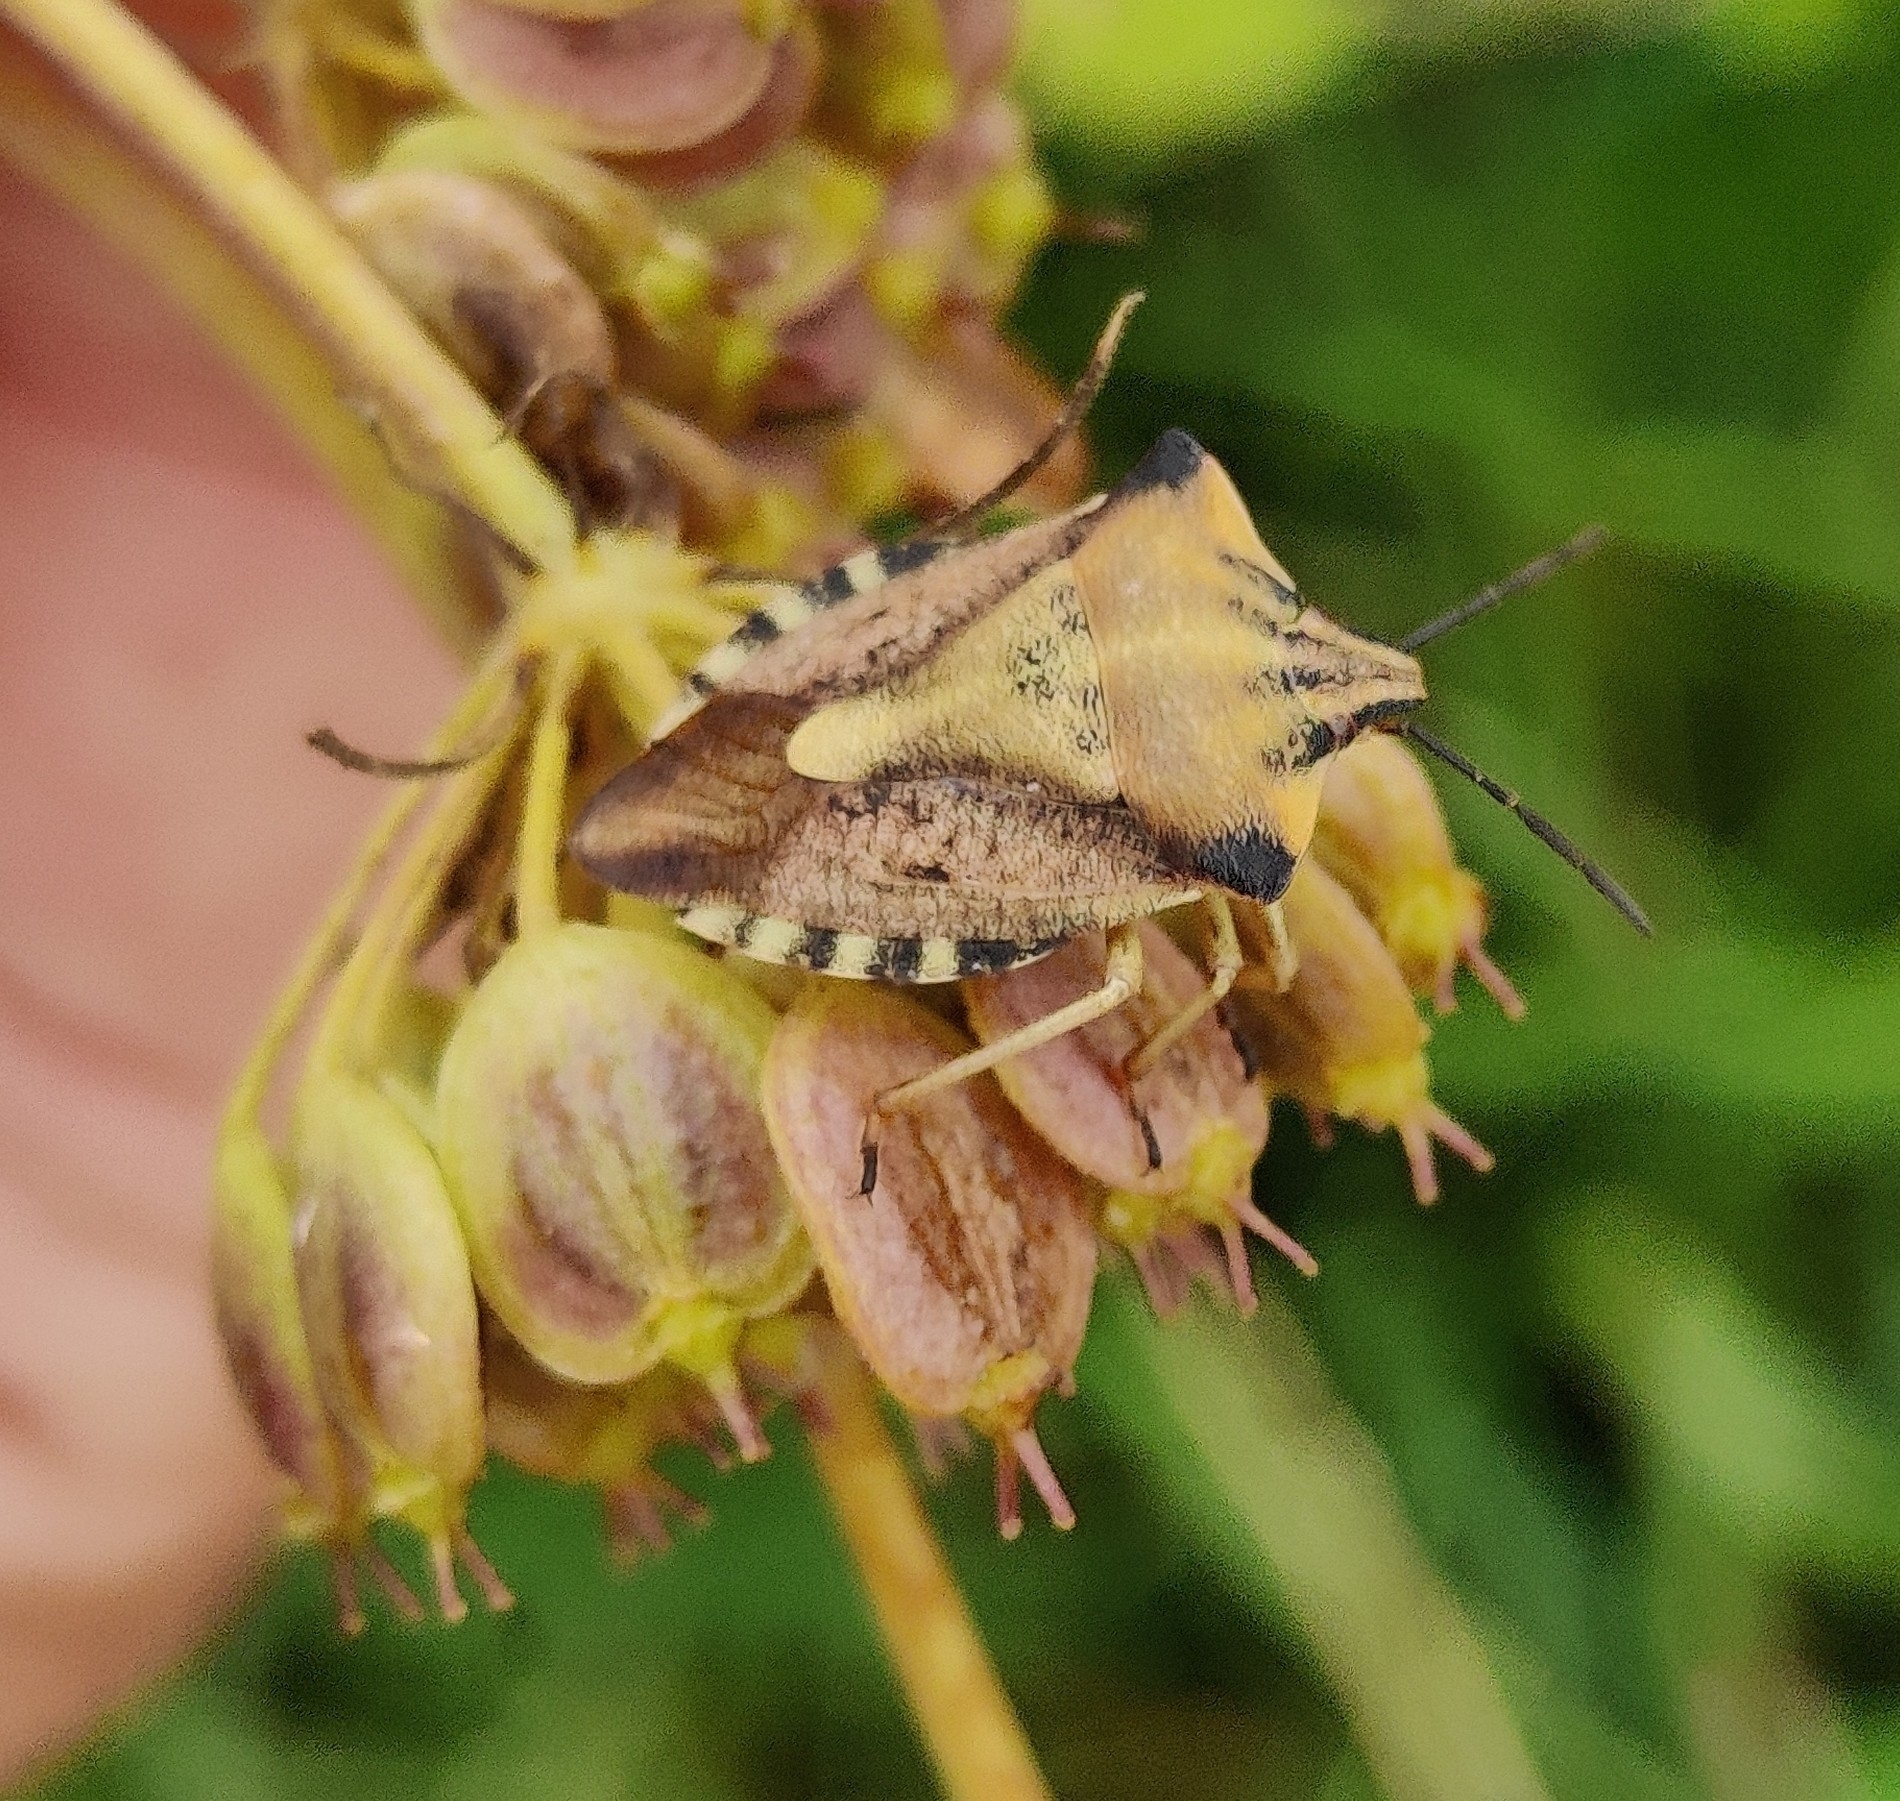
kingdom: Animalia
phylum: Arthropoda
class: Insecta
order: Hemiptera
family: Pentatomidae
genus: Carpocoris
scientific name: Carpocoris fuscispinus
